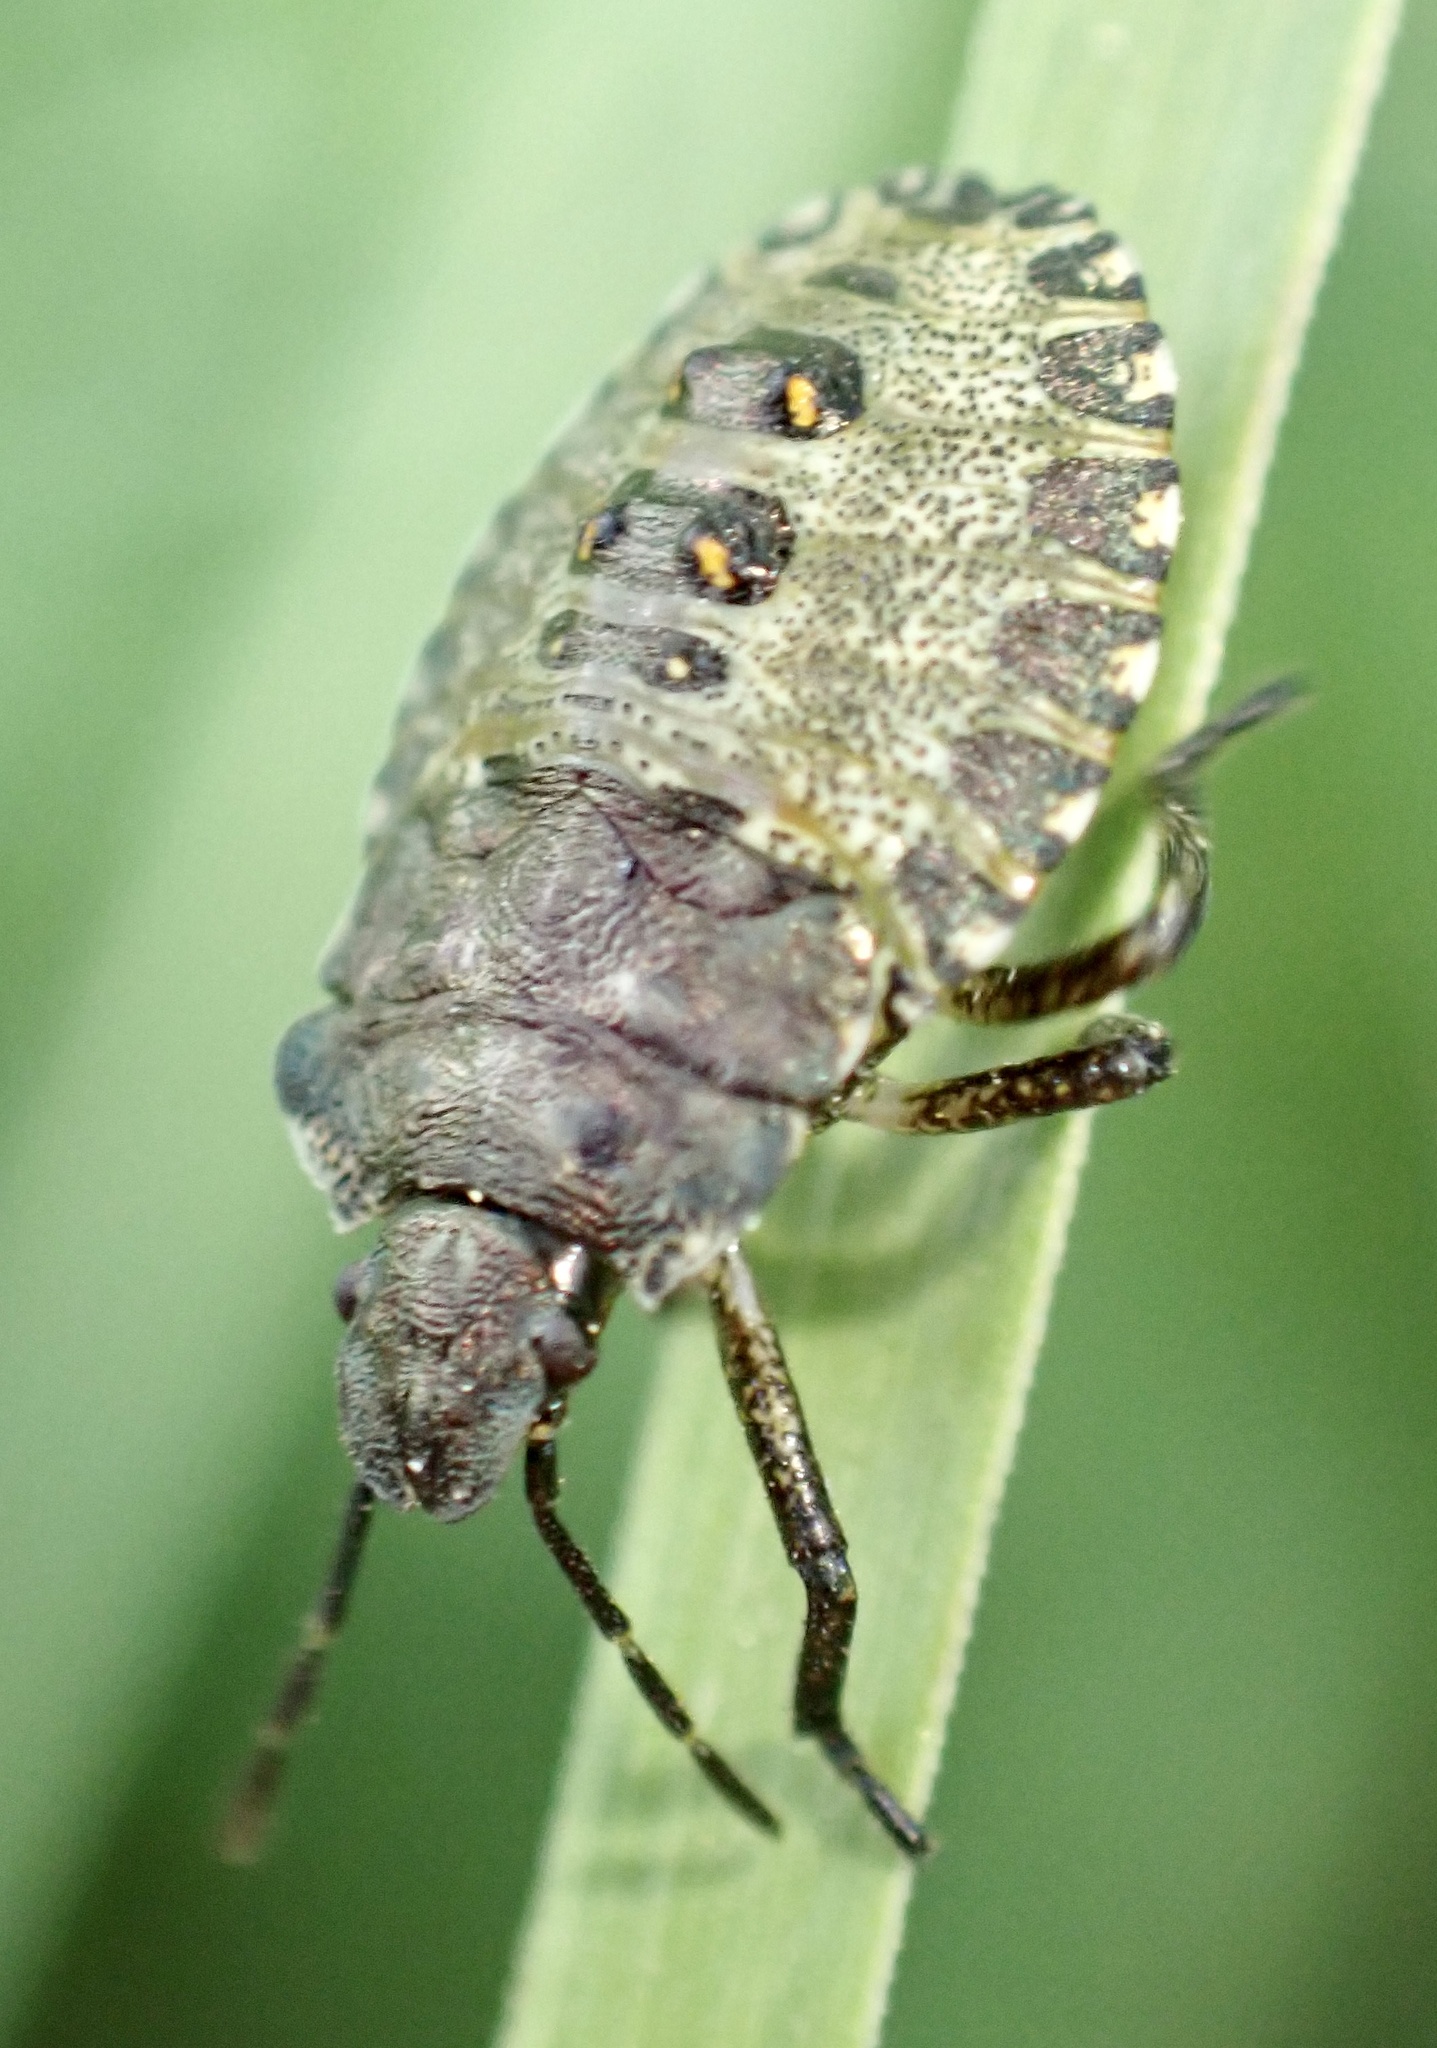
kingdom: Animalia
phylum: Arthropoda
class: Insecta
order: Hemiptera
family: Pentatomidae
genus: Pentatoma
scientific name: Pentatoma rufipes
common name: Forest bug
